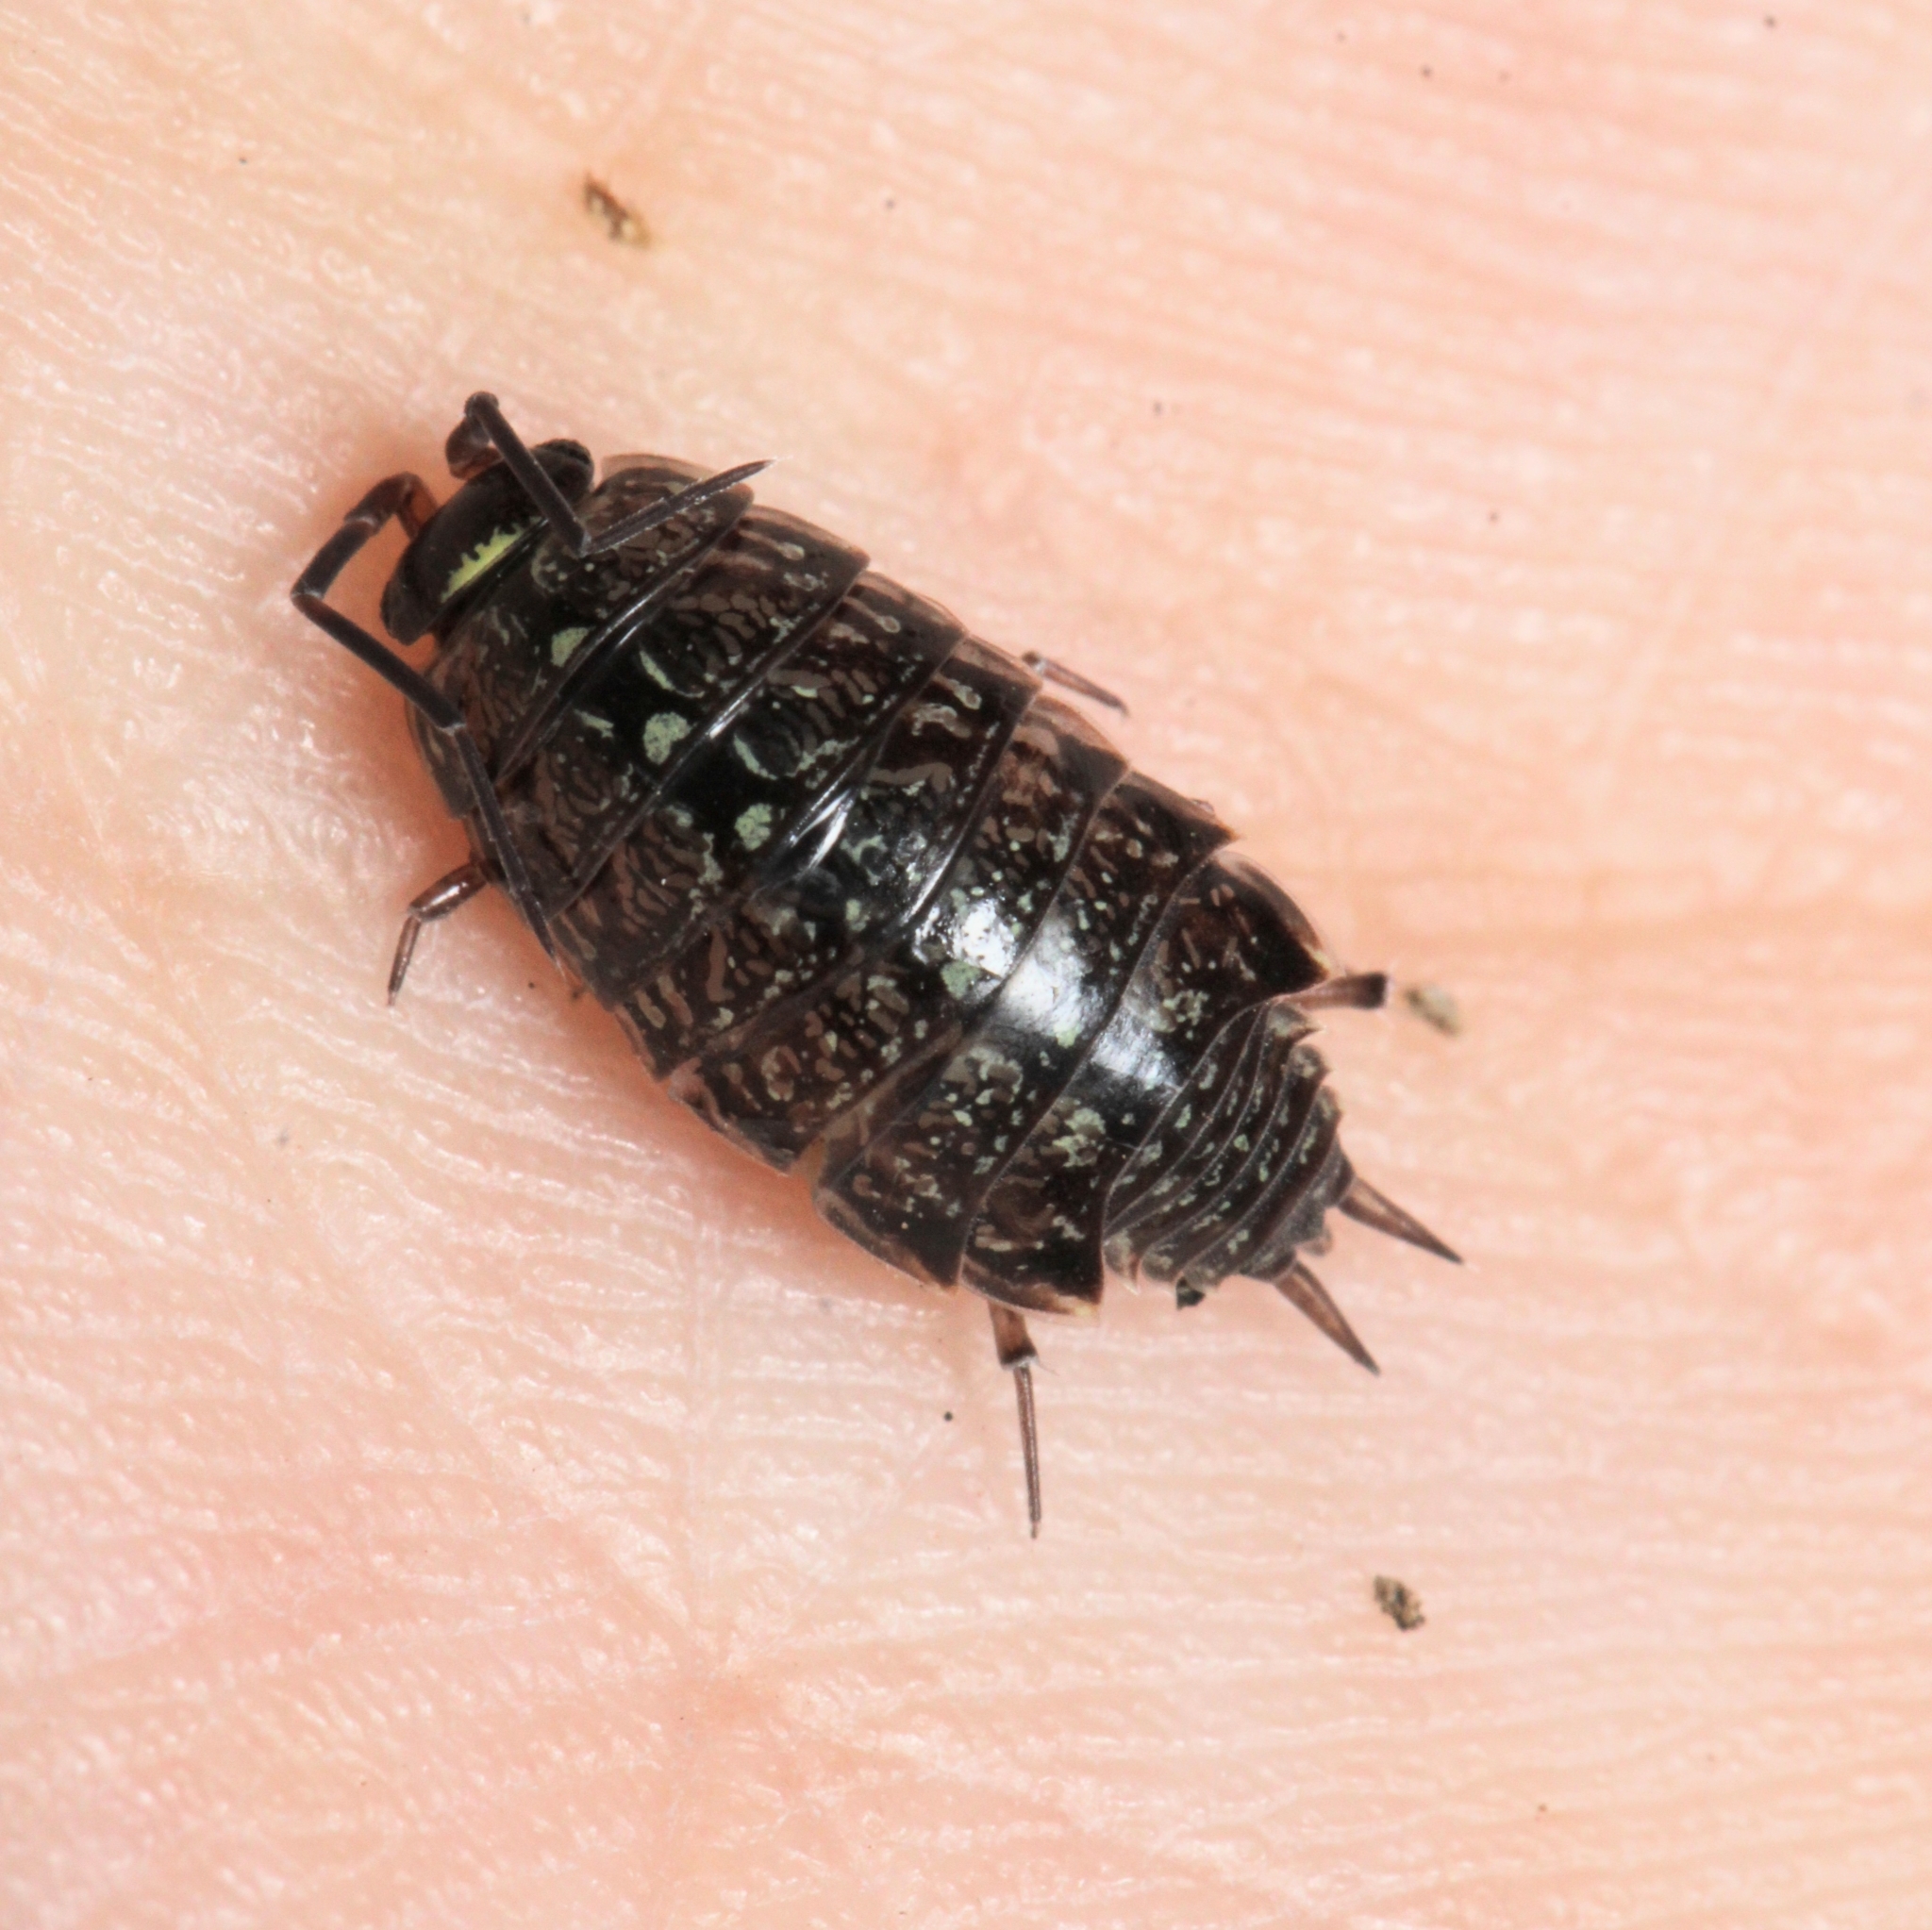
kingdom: Animalia
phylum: Arthropoda
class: Malacostraca
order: Isopoda
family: Philosciidae
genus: Philoscia
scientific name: Philoscia muscorum
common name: Common striped woodlouse
